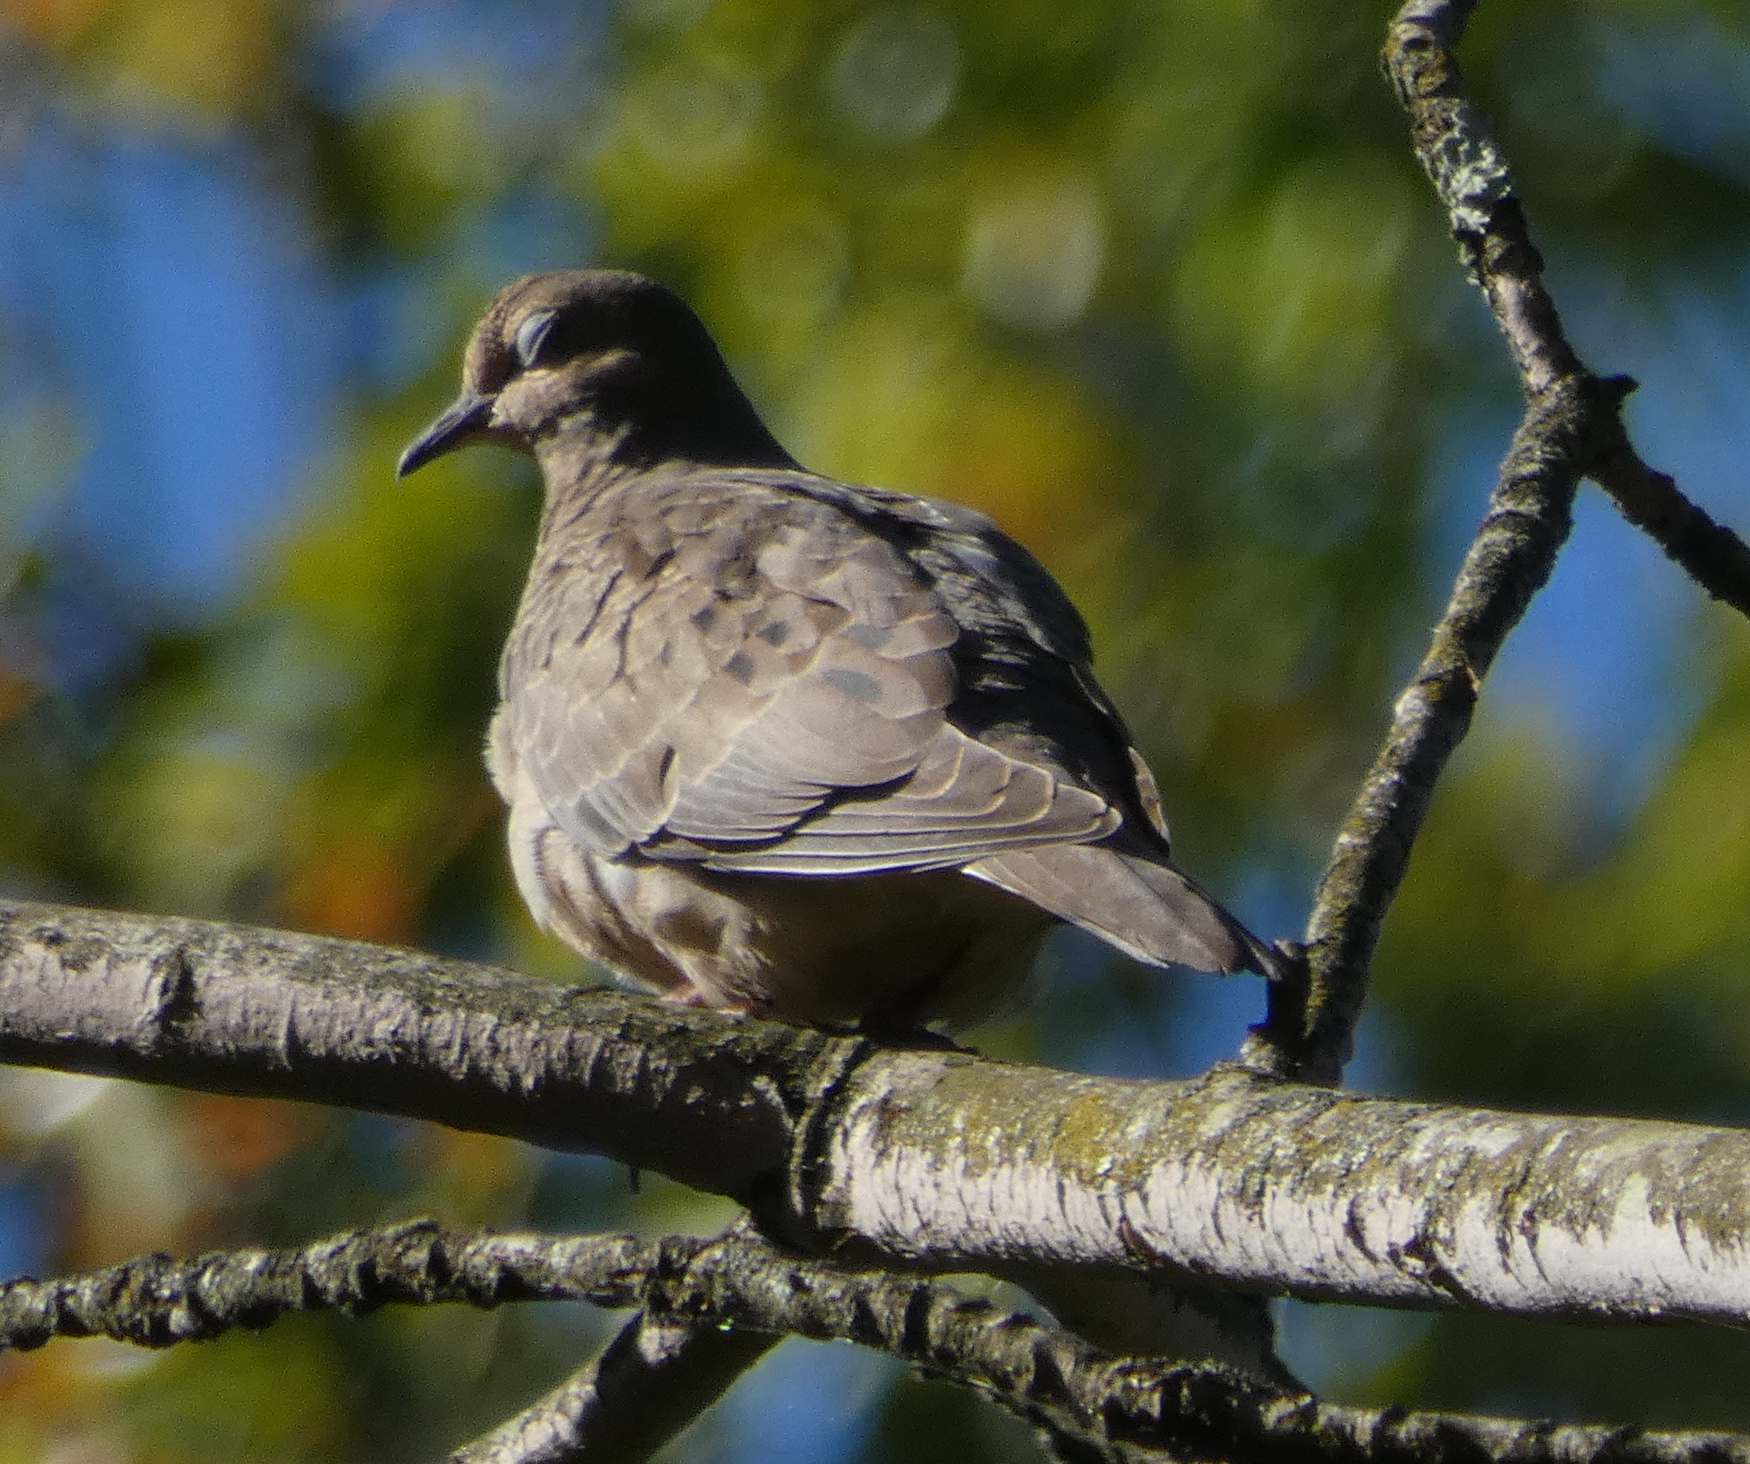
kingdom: Animalia
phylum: Chordata
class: Aves
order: Columbiformes
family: Columbidae
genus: Zenaida
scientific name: Zenaida macroura
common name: Mourning dove
